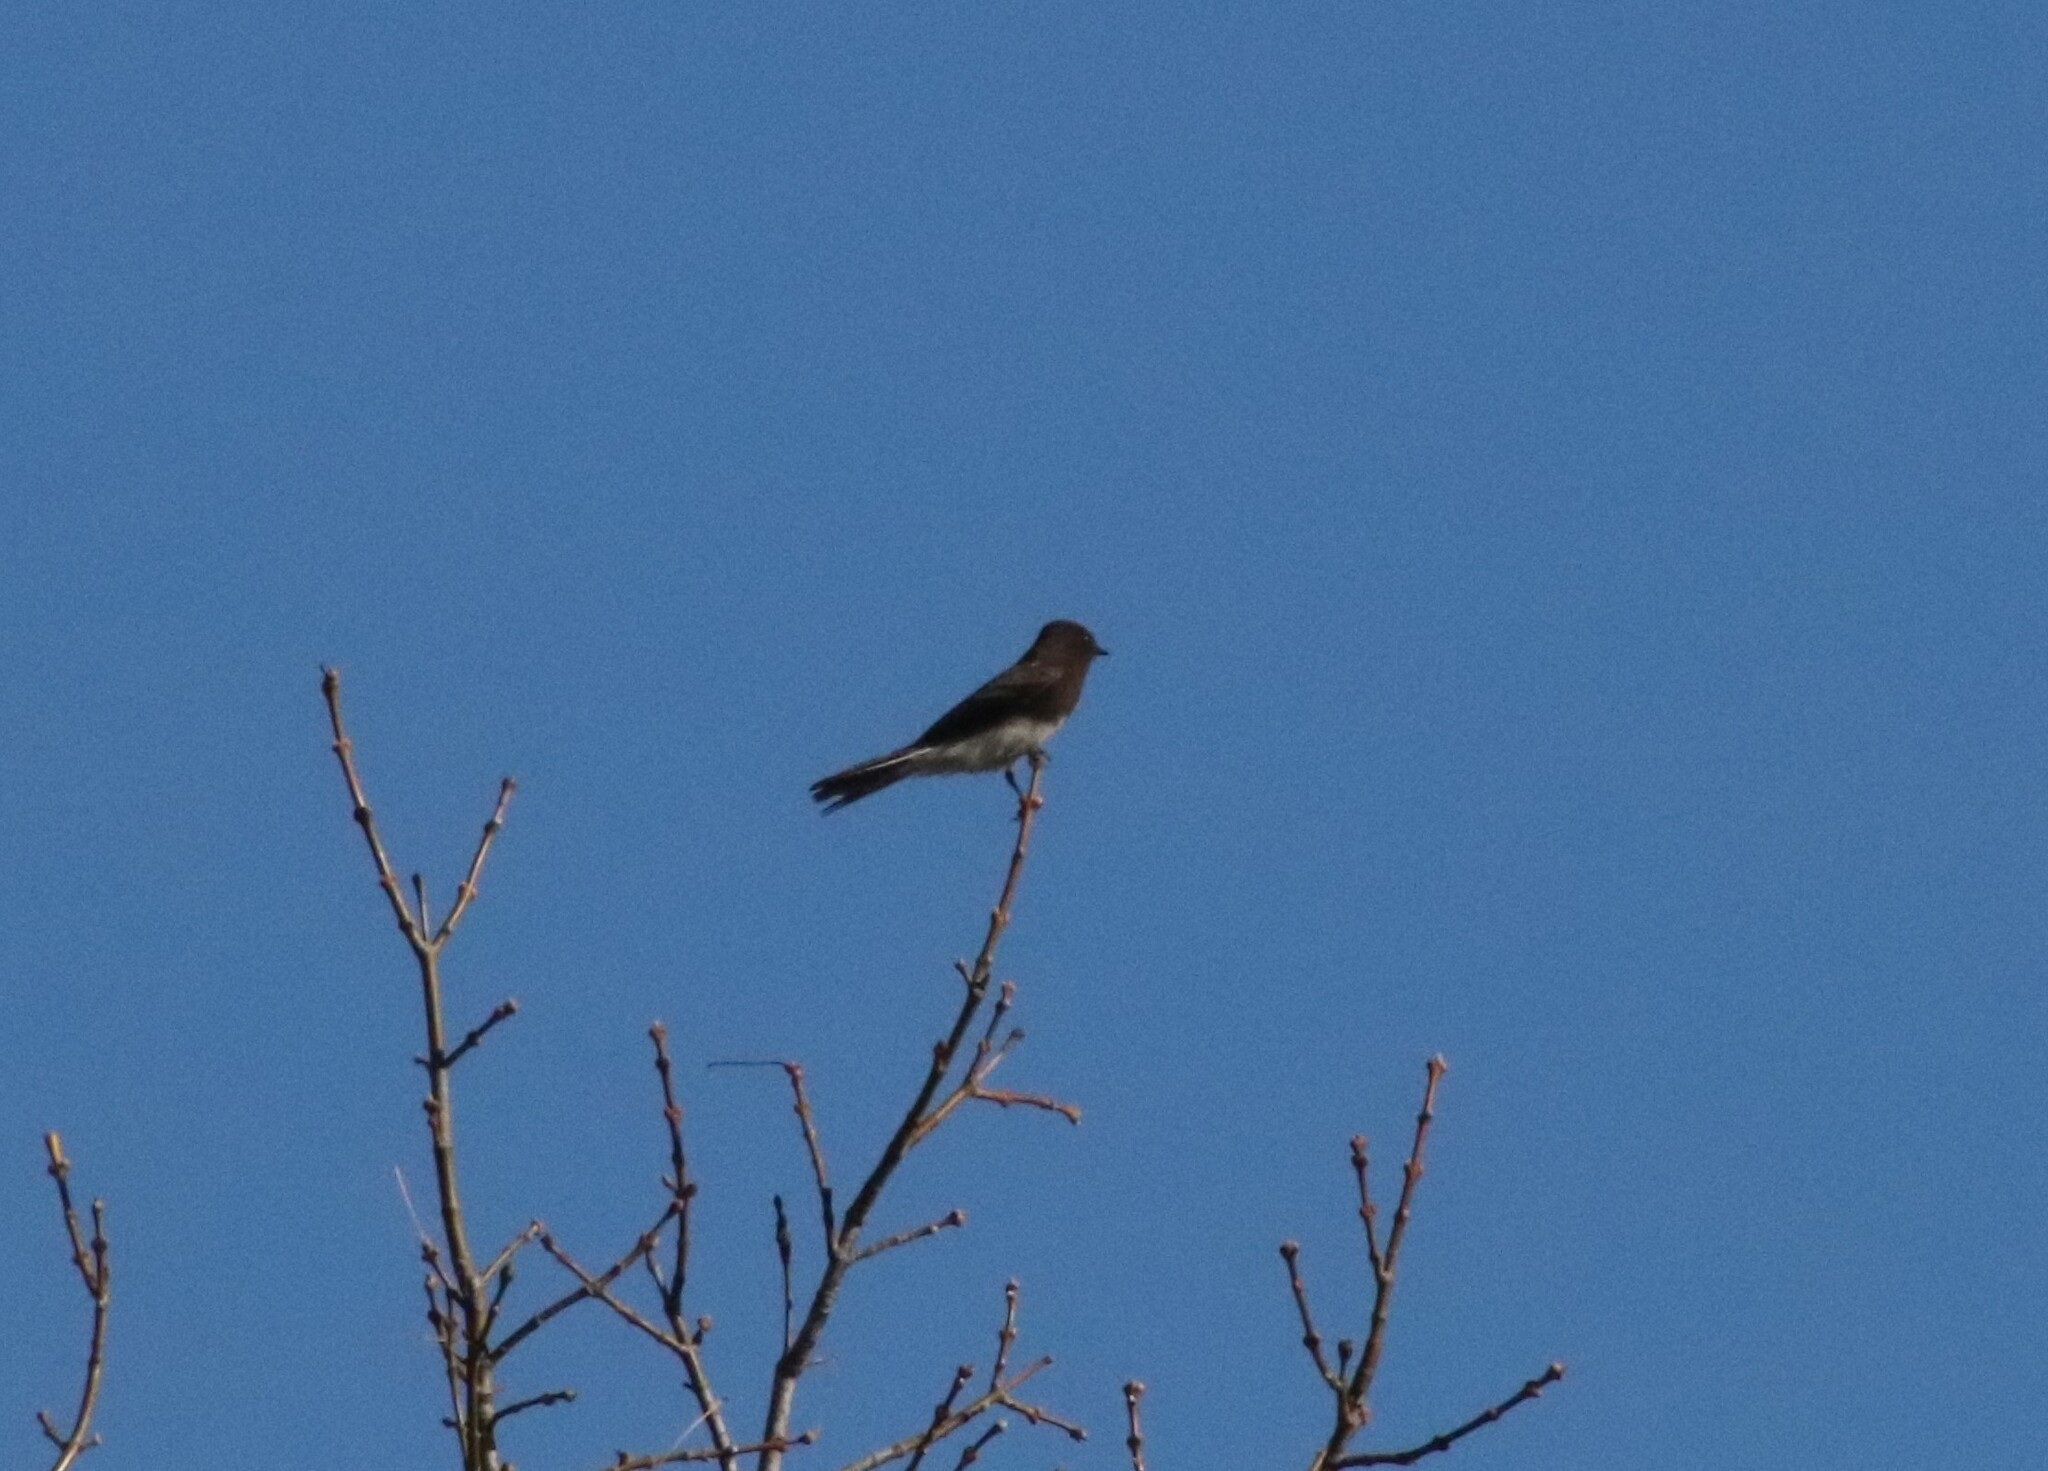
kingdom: Animalia
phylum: Chordata
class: Aves
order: Passeriformes
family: Tyrannidae
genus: Sayornis
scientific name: Sayornis nigricans
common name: Black phoebe
